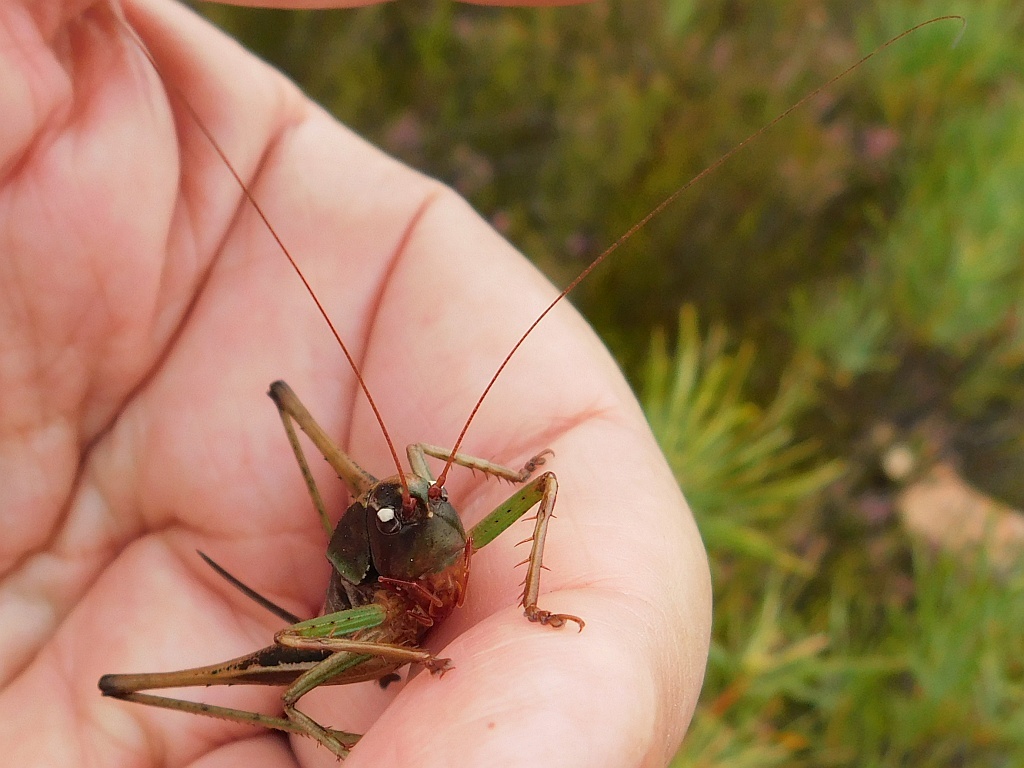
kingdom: Animalia
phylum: Arthropoda
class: Insecta
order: Orthoptera
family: Tettigoniidae
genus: Alfredectes
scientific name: Alfredectes semiaeneus
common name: Alfred's shieldback
